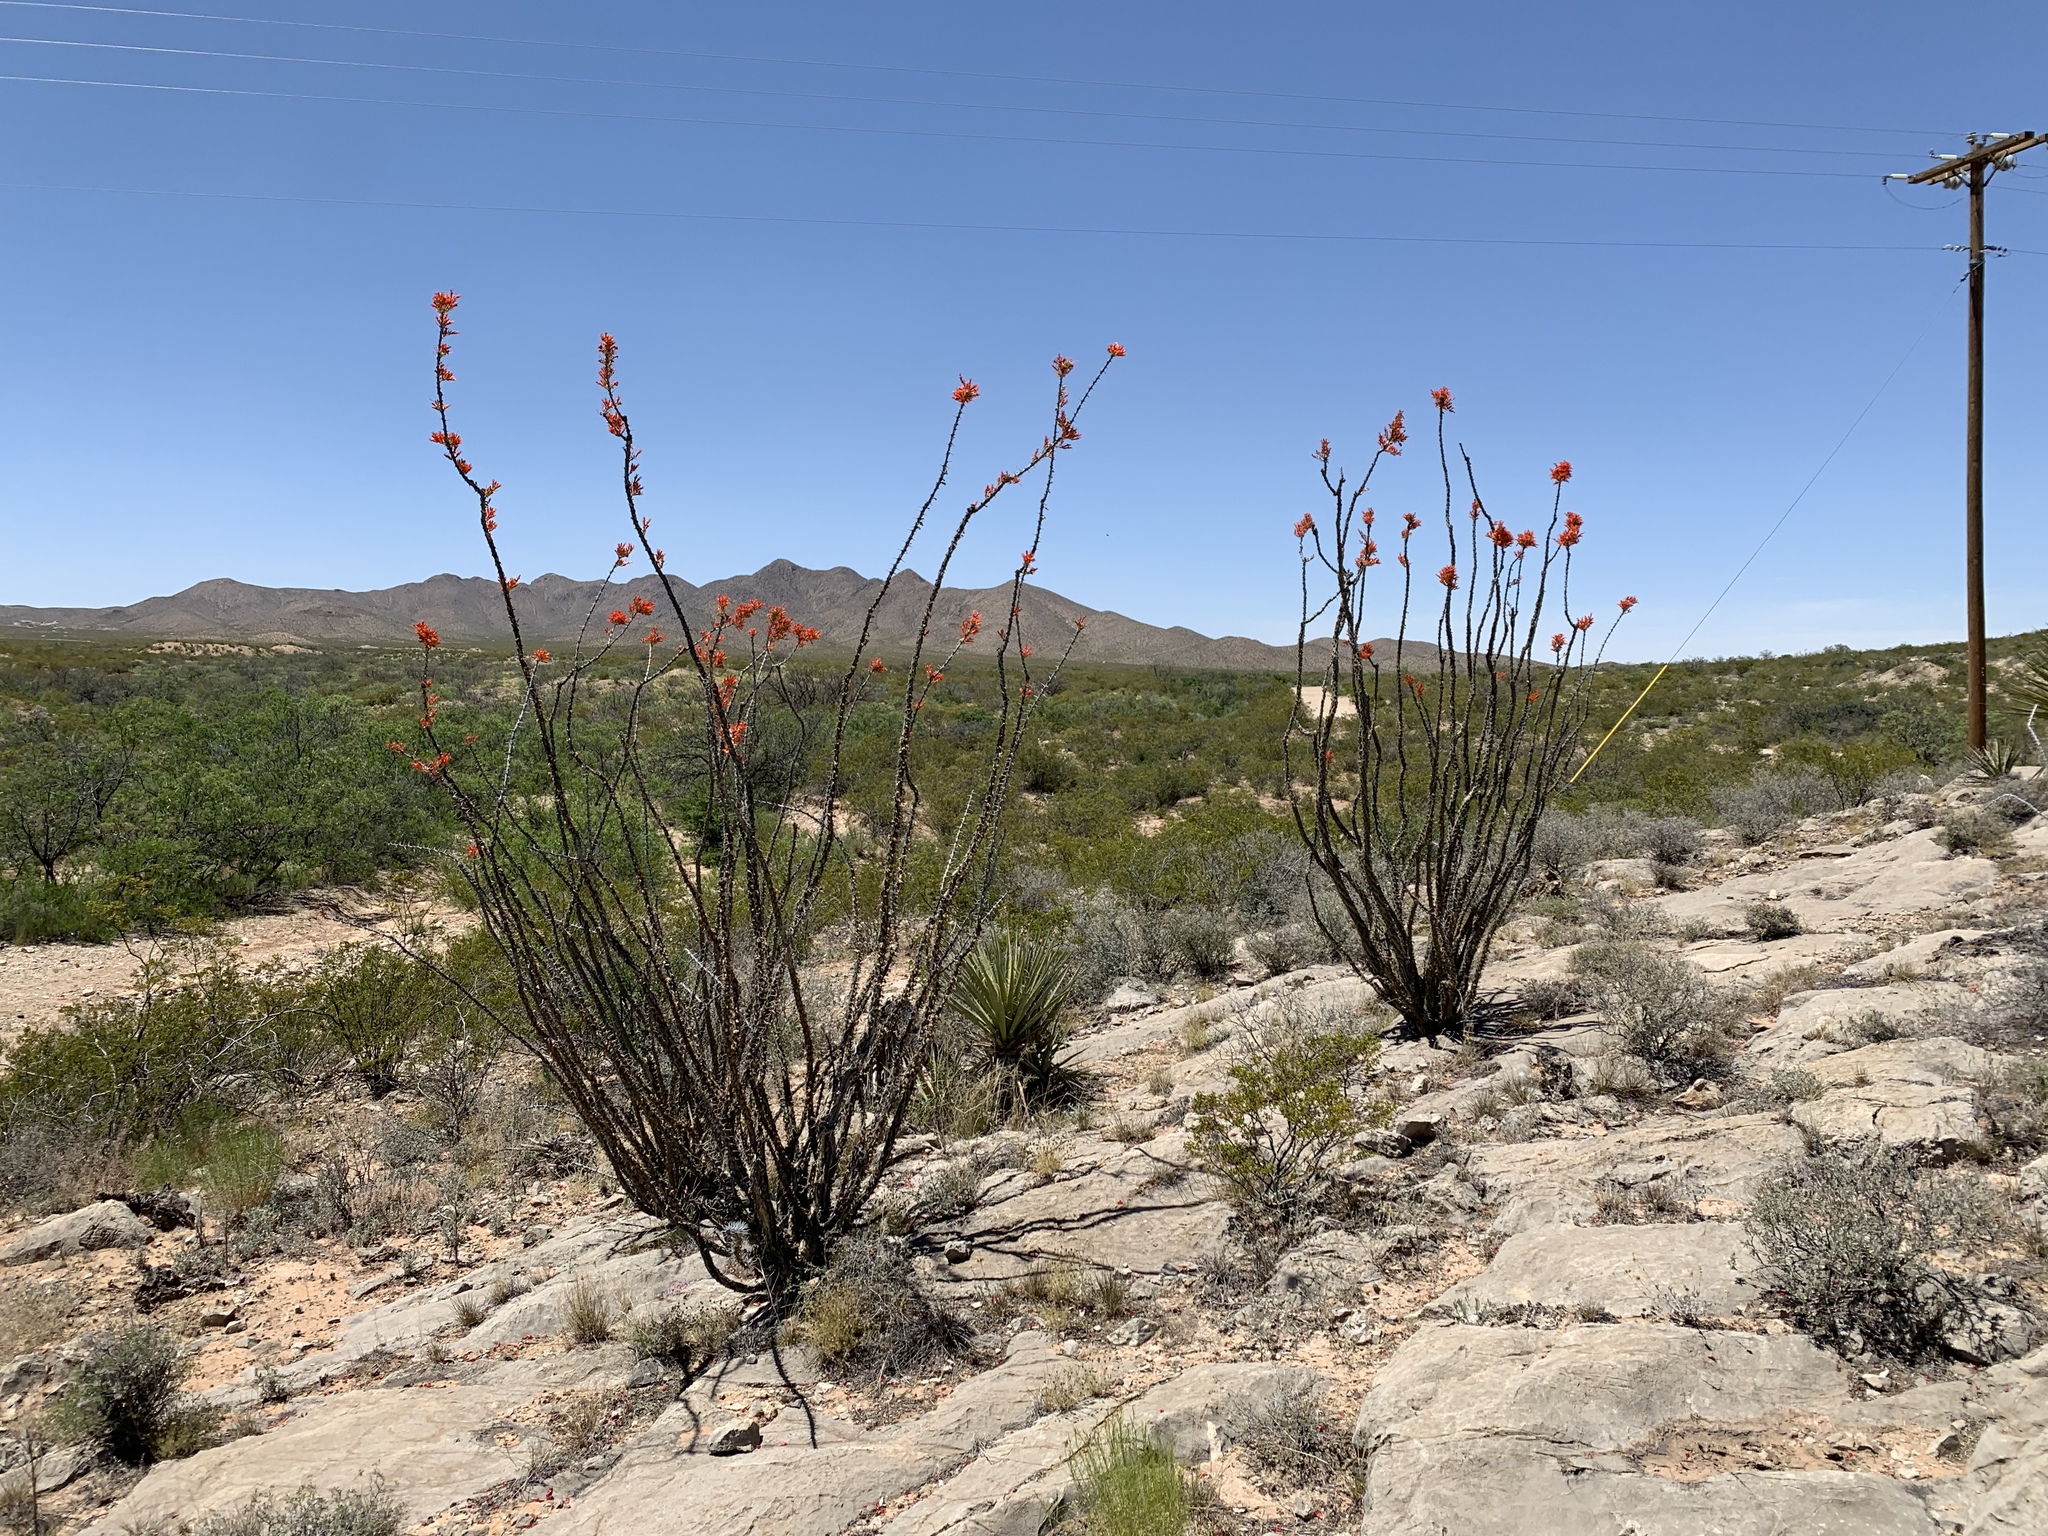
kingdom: Plantae
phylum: Tracheophyta
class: Magnoliopsida
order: Ericales
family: Fouquieriaceae
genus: Fouquieria
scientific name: Fouquieria splendens
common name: Vine-cactus
